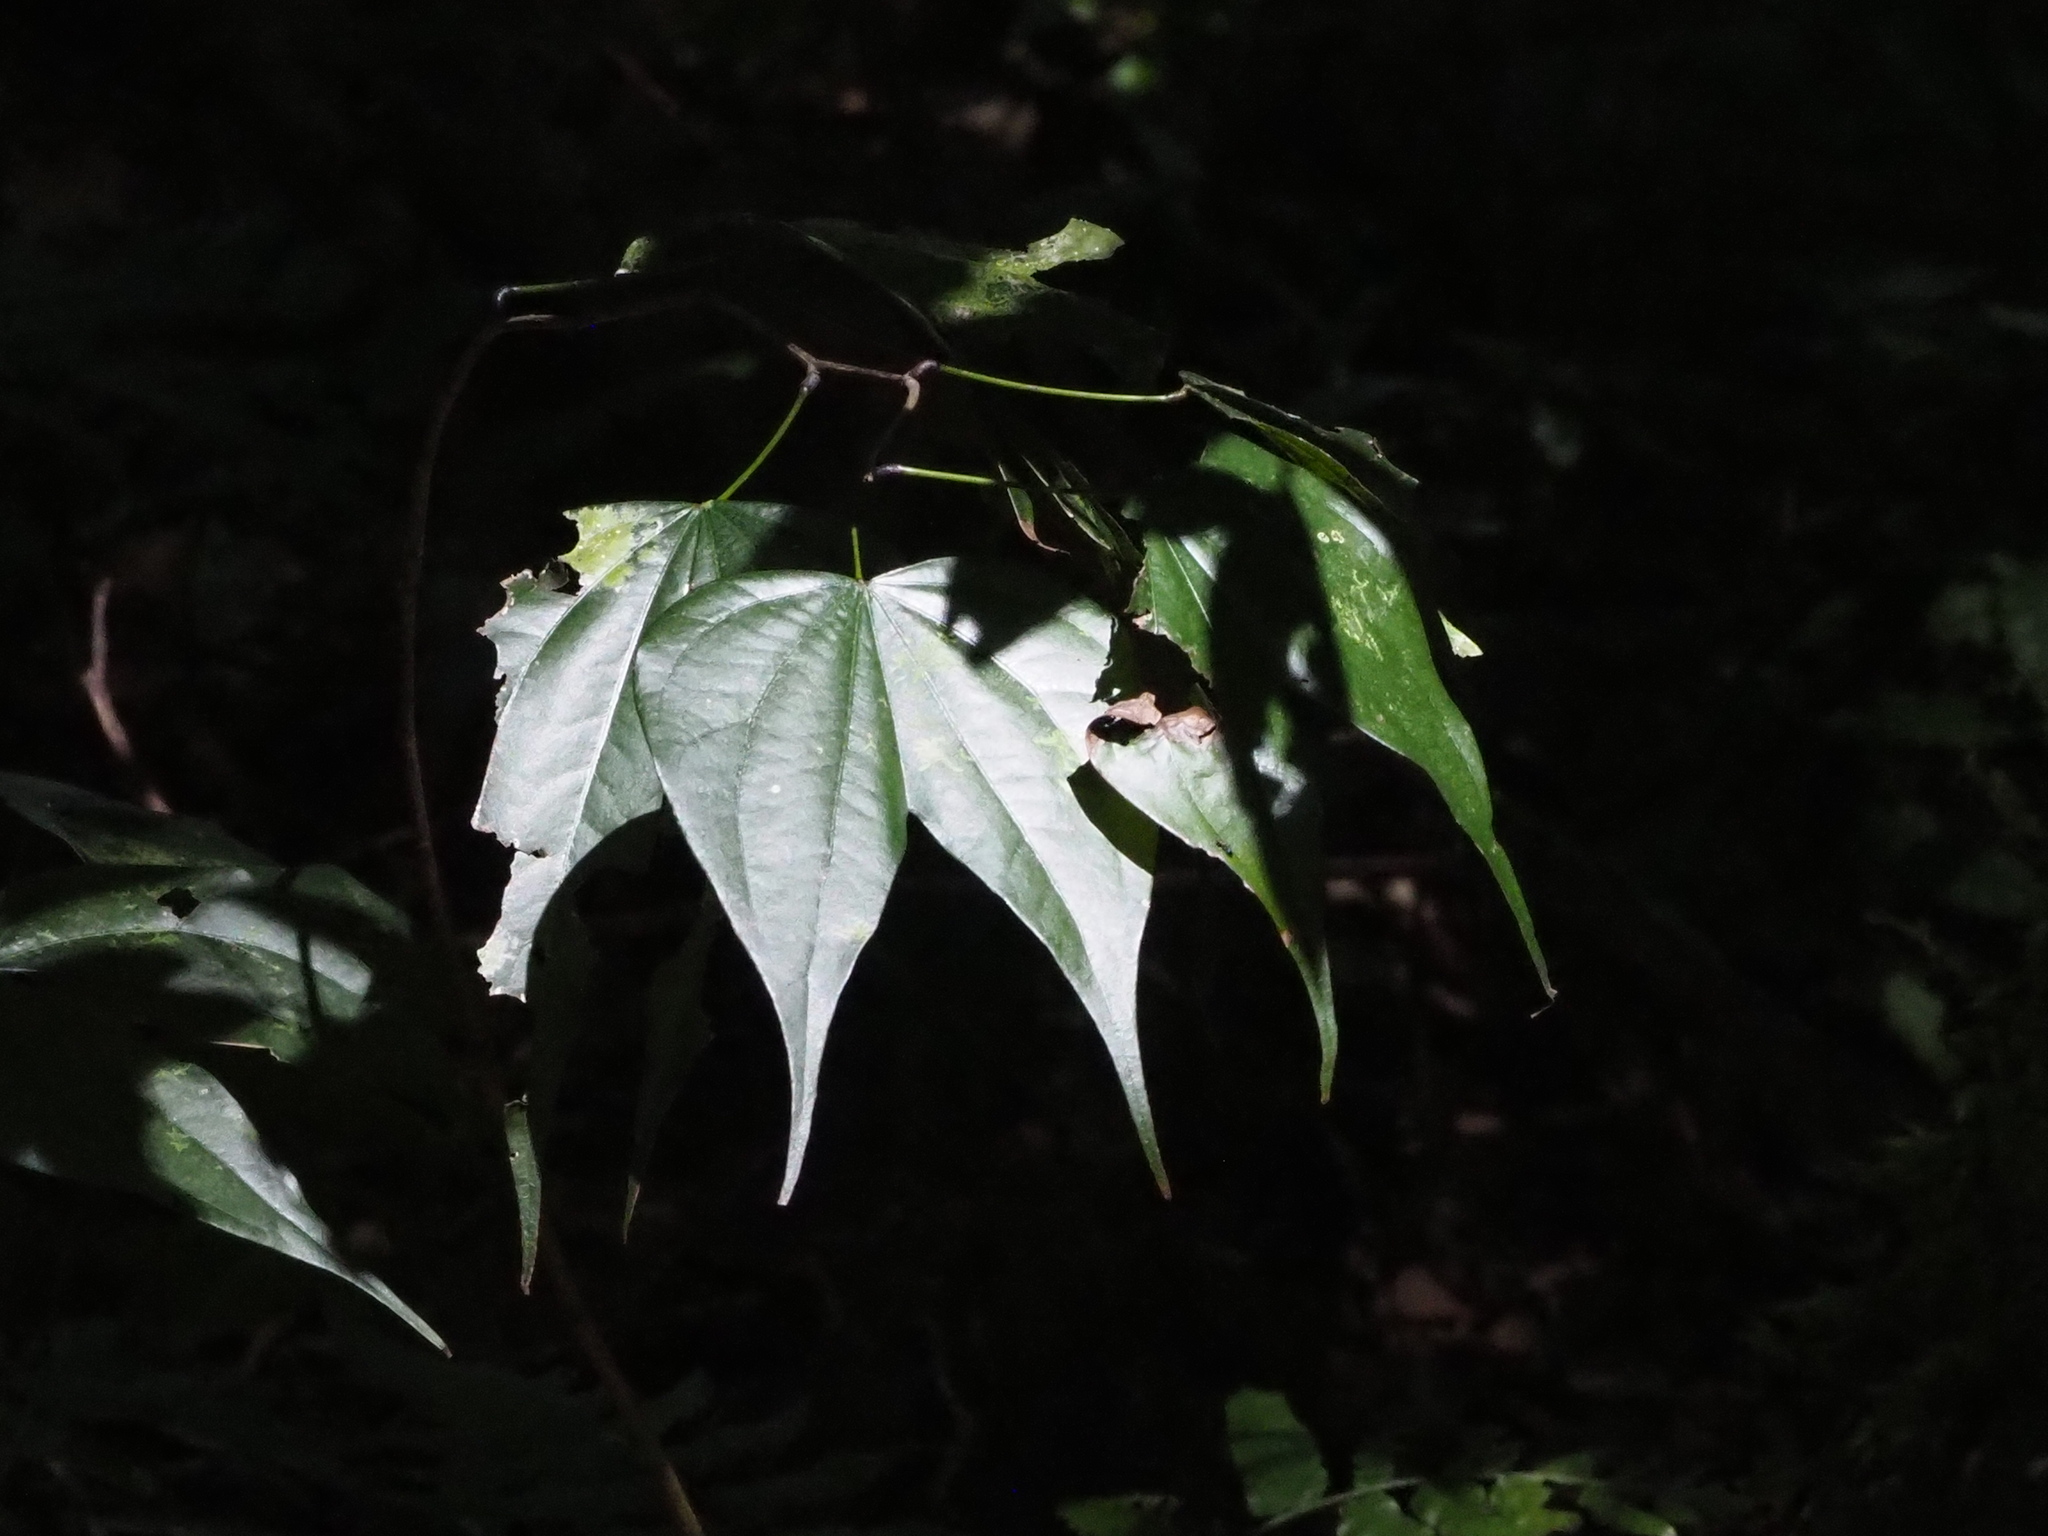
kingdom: Plantae
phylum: Tracheophyta
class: Magnoliopsida
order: Fabales
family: Fabaceae
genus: Phanera
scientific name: Phanera championii
